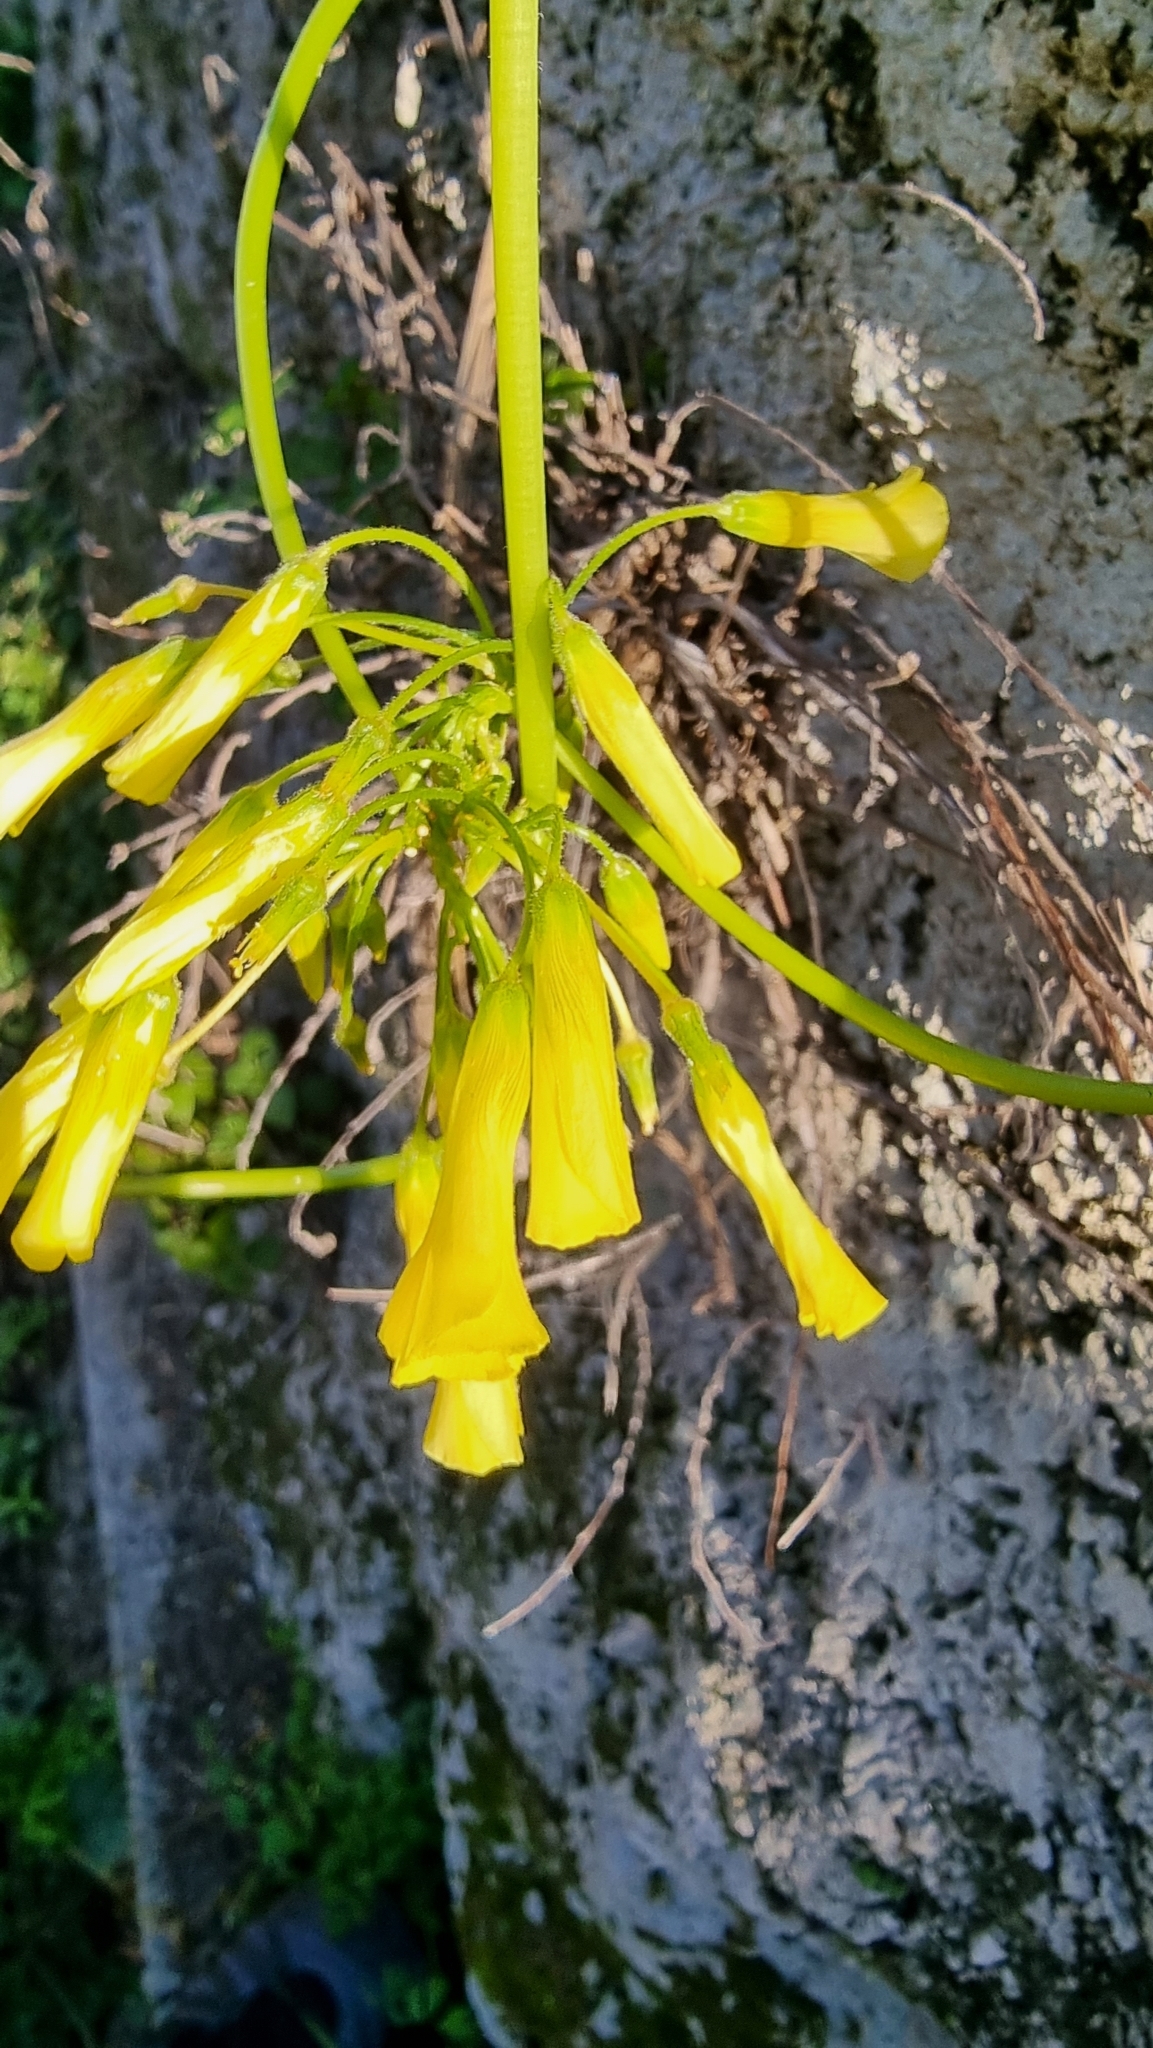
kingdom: Plantae
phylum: Tracheophyta
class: Magnoliopsida
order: Oxalidales
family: Oxalidaceae
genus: Oxalis
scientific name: Oxalis pes-caprae
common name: Bermuda-buttercup
